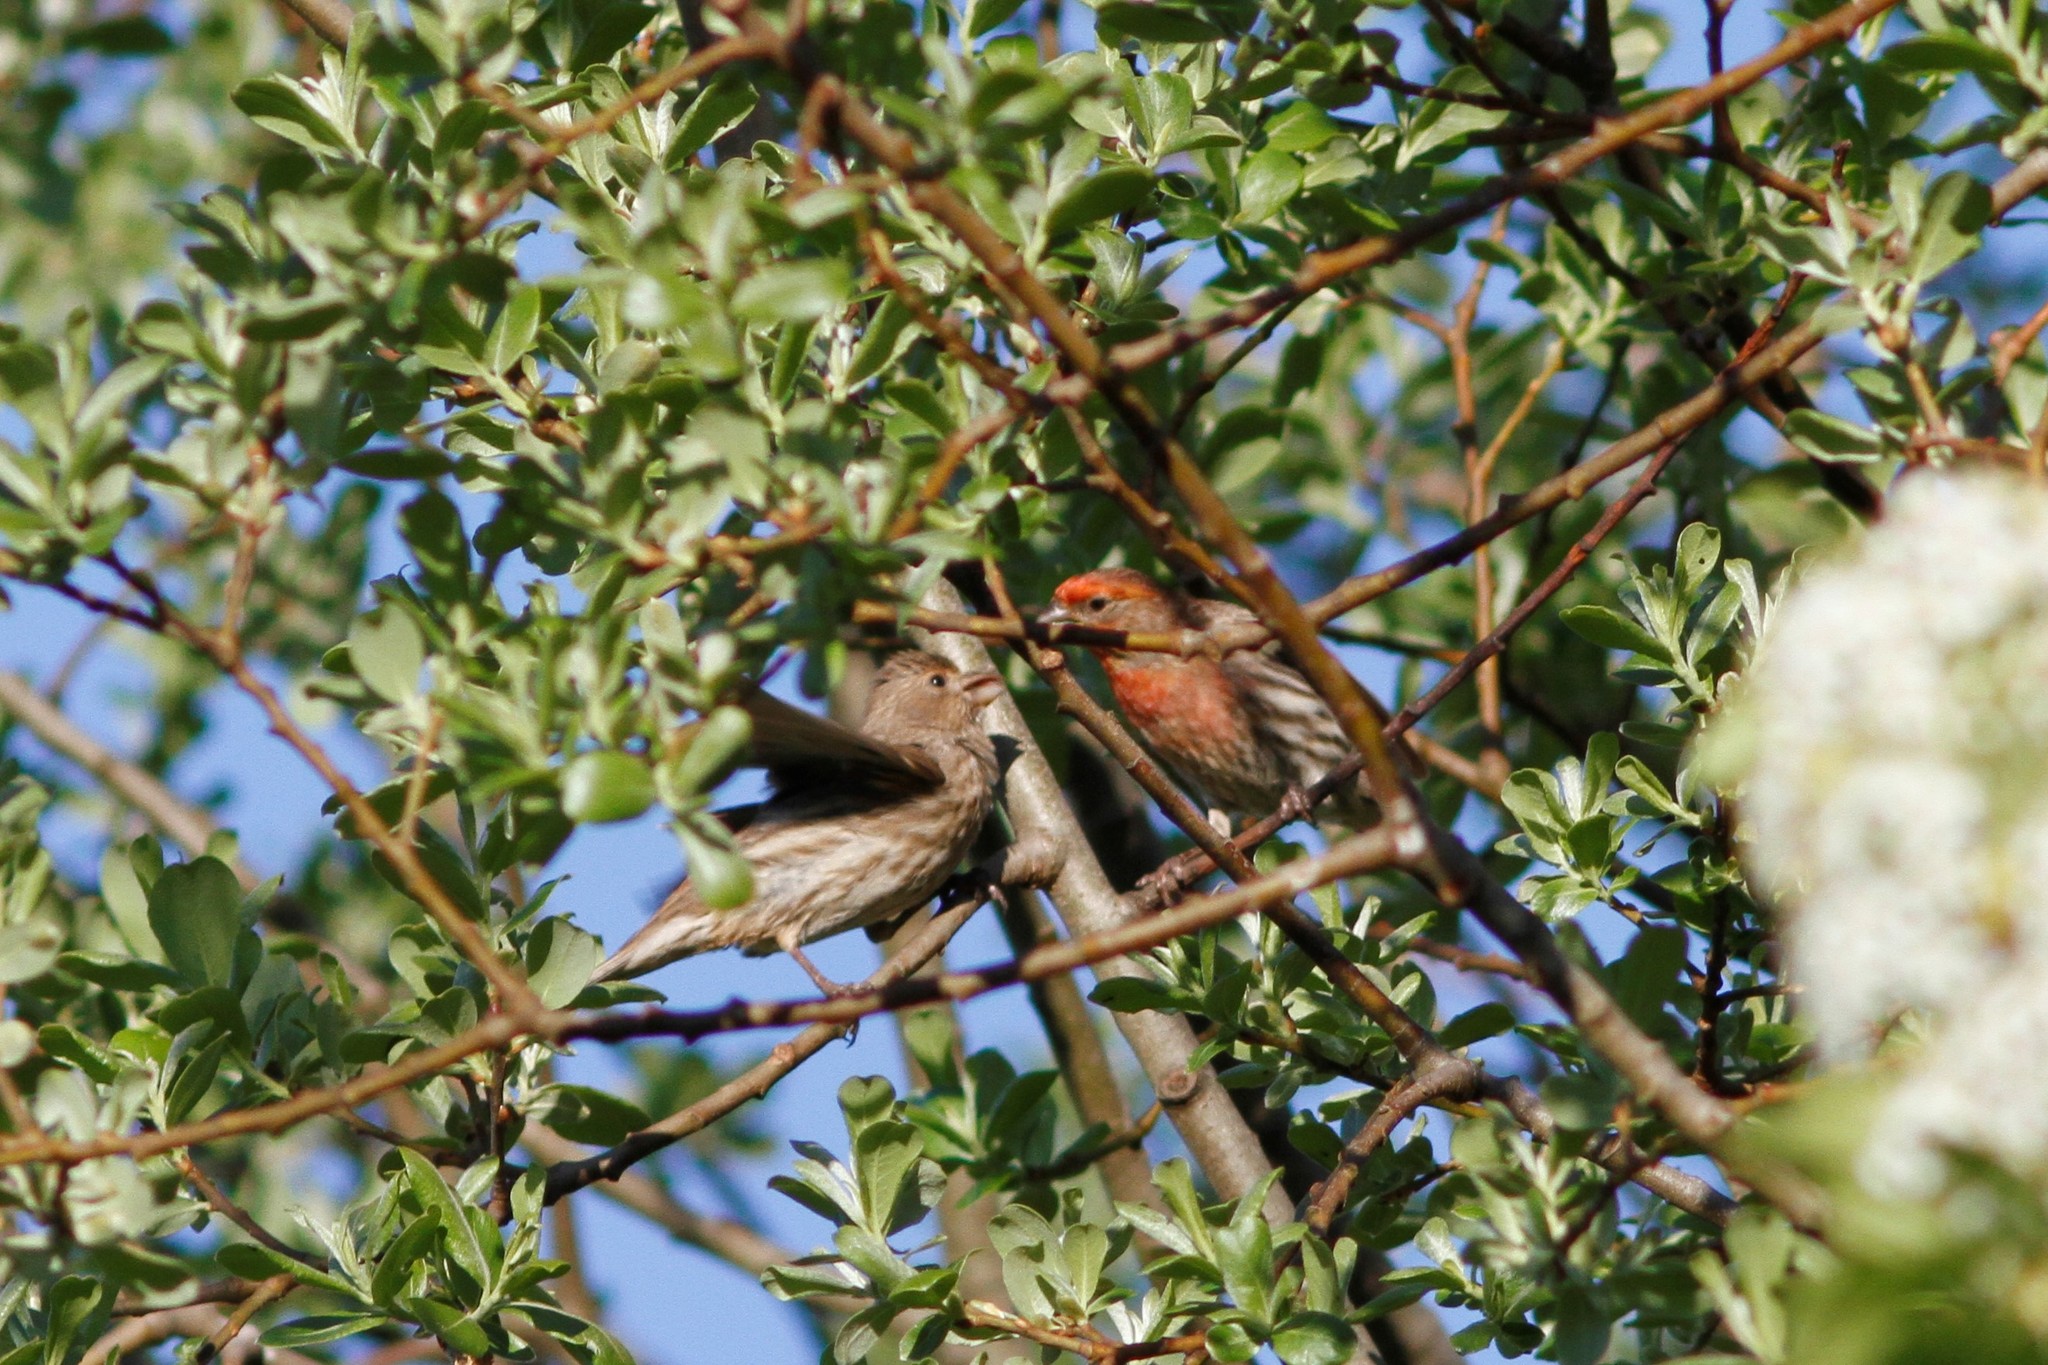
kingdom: Animalia
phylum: Chordata
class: Aves
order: Passeriformes
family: Fringillidae
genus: Haemorhous
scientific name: Haemorhous mexicanus
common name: House finch
